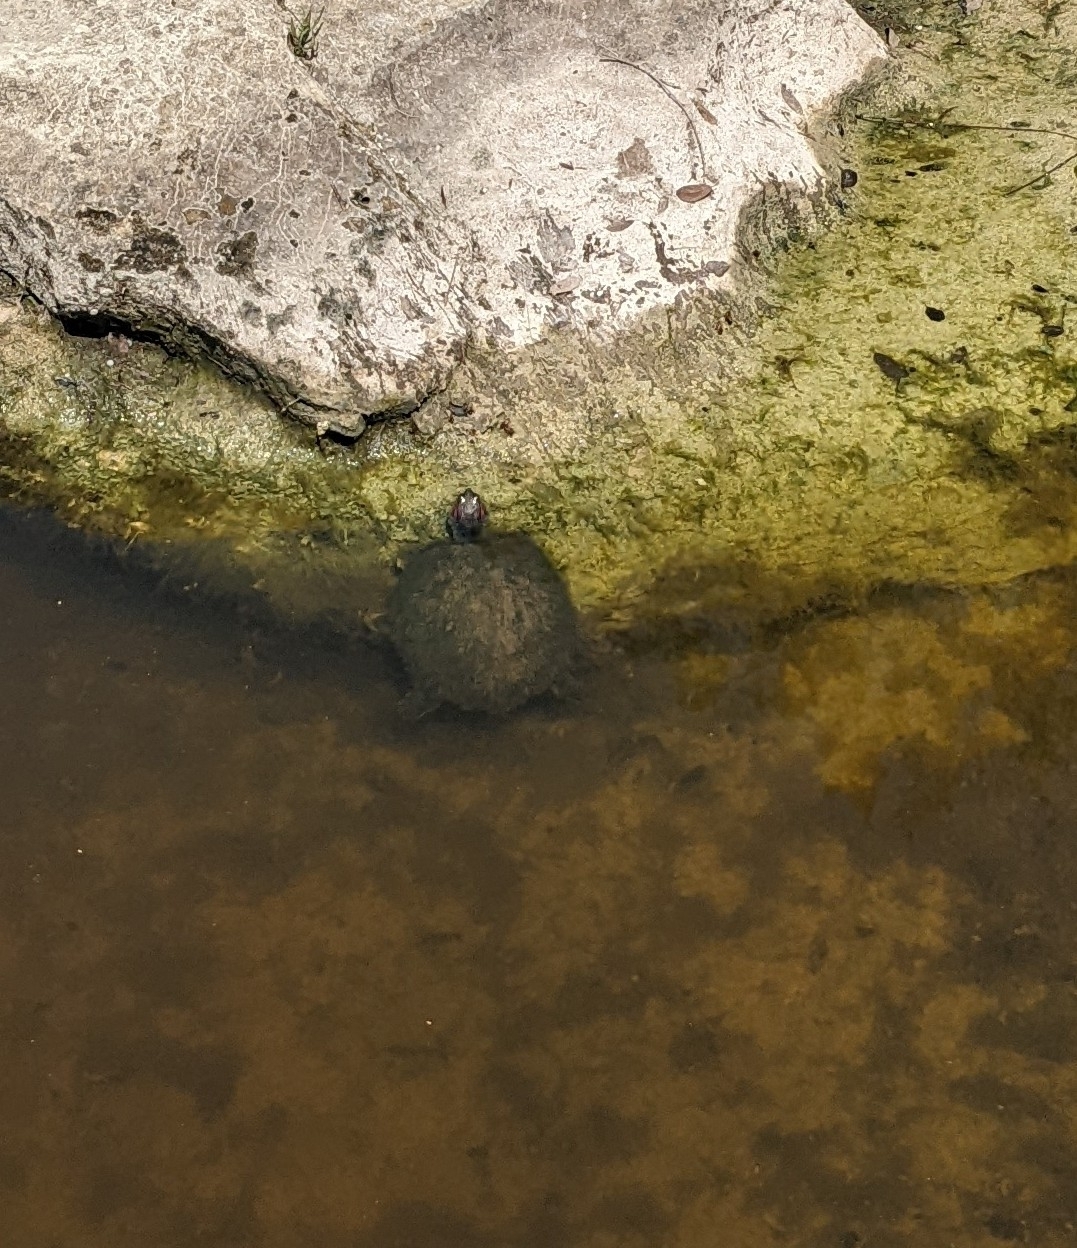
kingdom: Animalia
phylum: Chordata
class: Testudines
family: Emydidae
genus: Trachemys
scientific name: Trachemys scripta
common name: Slider
